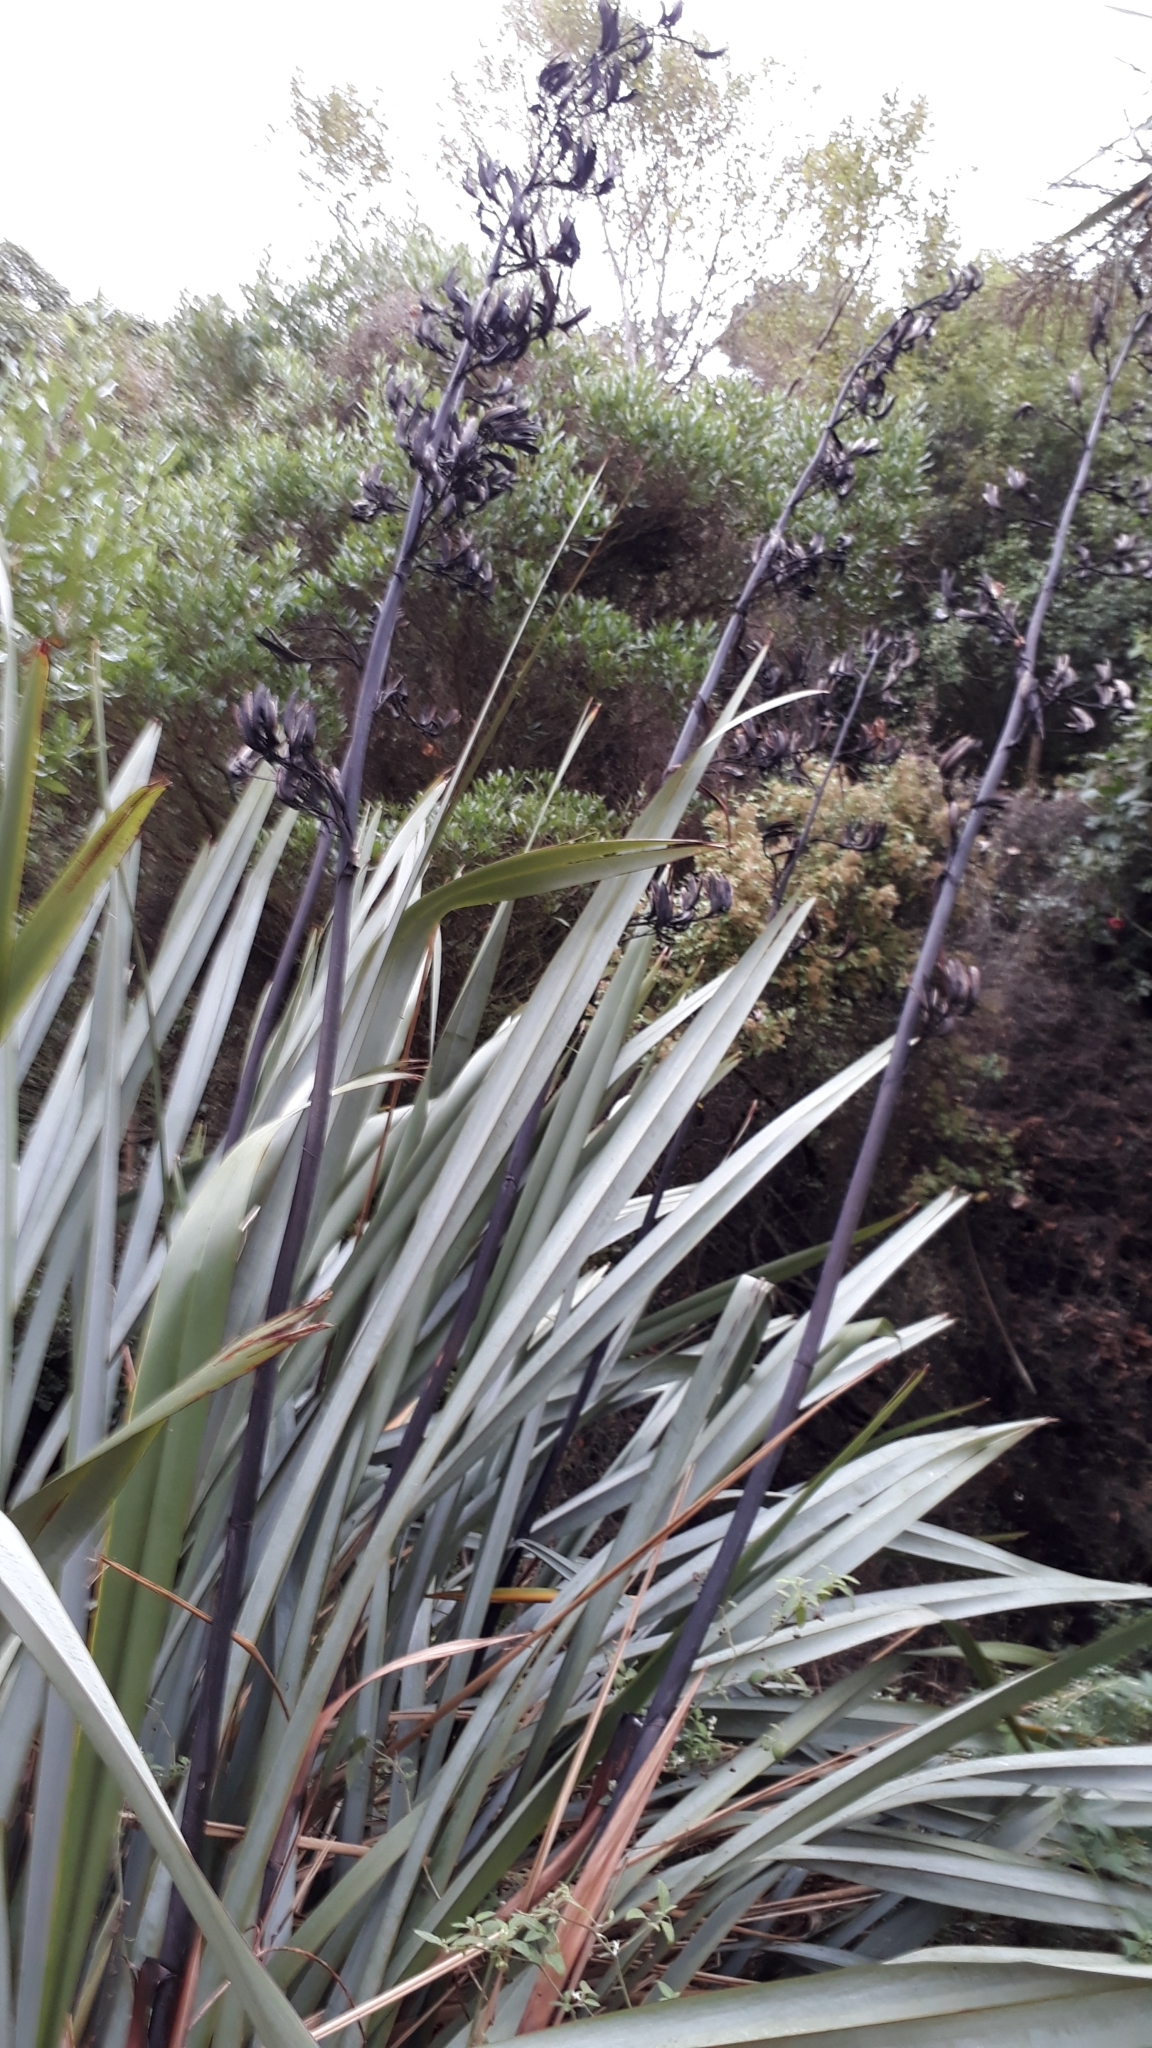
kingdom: Plantae
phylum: Tracheophyta
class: Liliopsida
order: Asparagales
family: Asphodelaceae
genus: Phormium
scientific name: Phormium tenax
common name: New zealand flax
